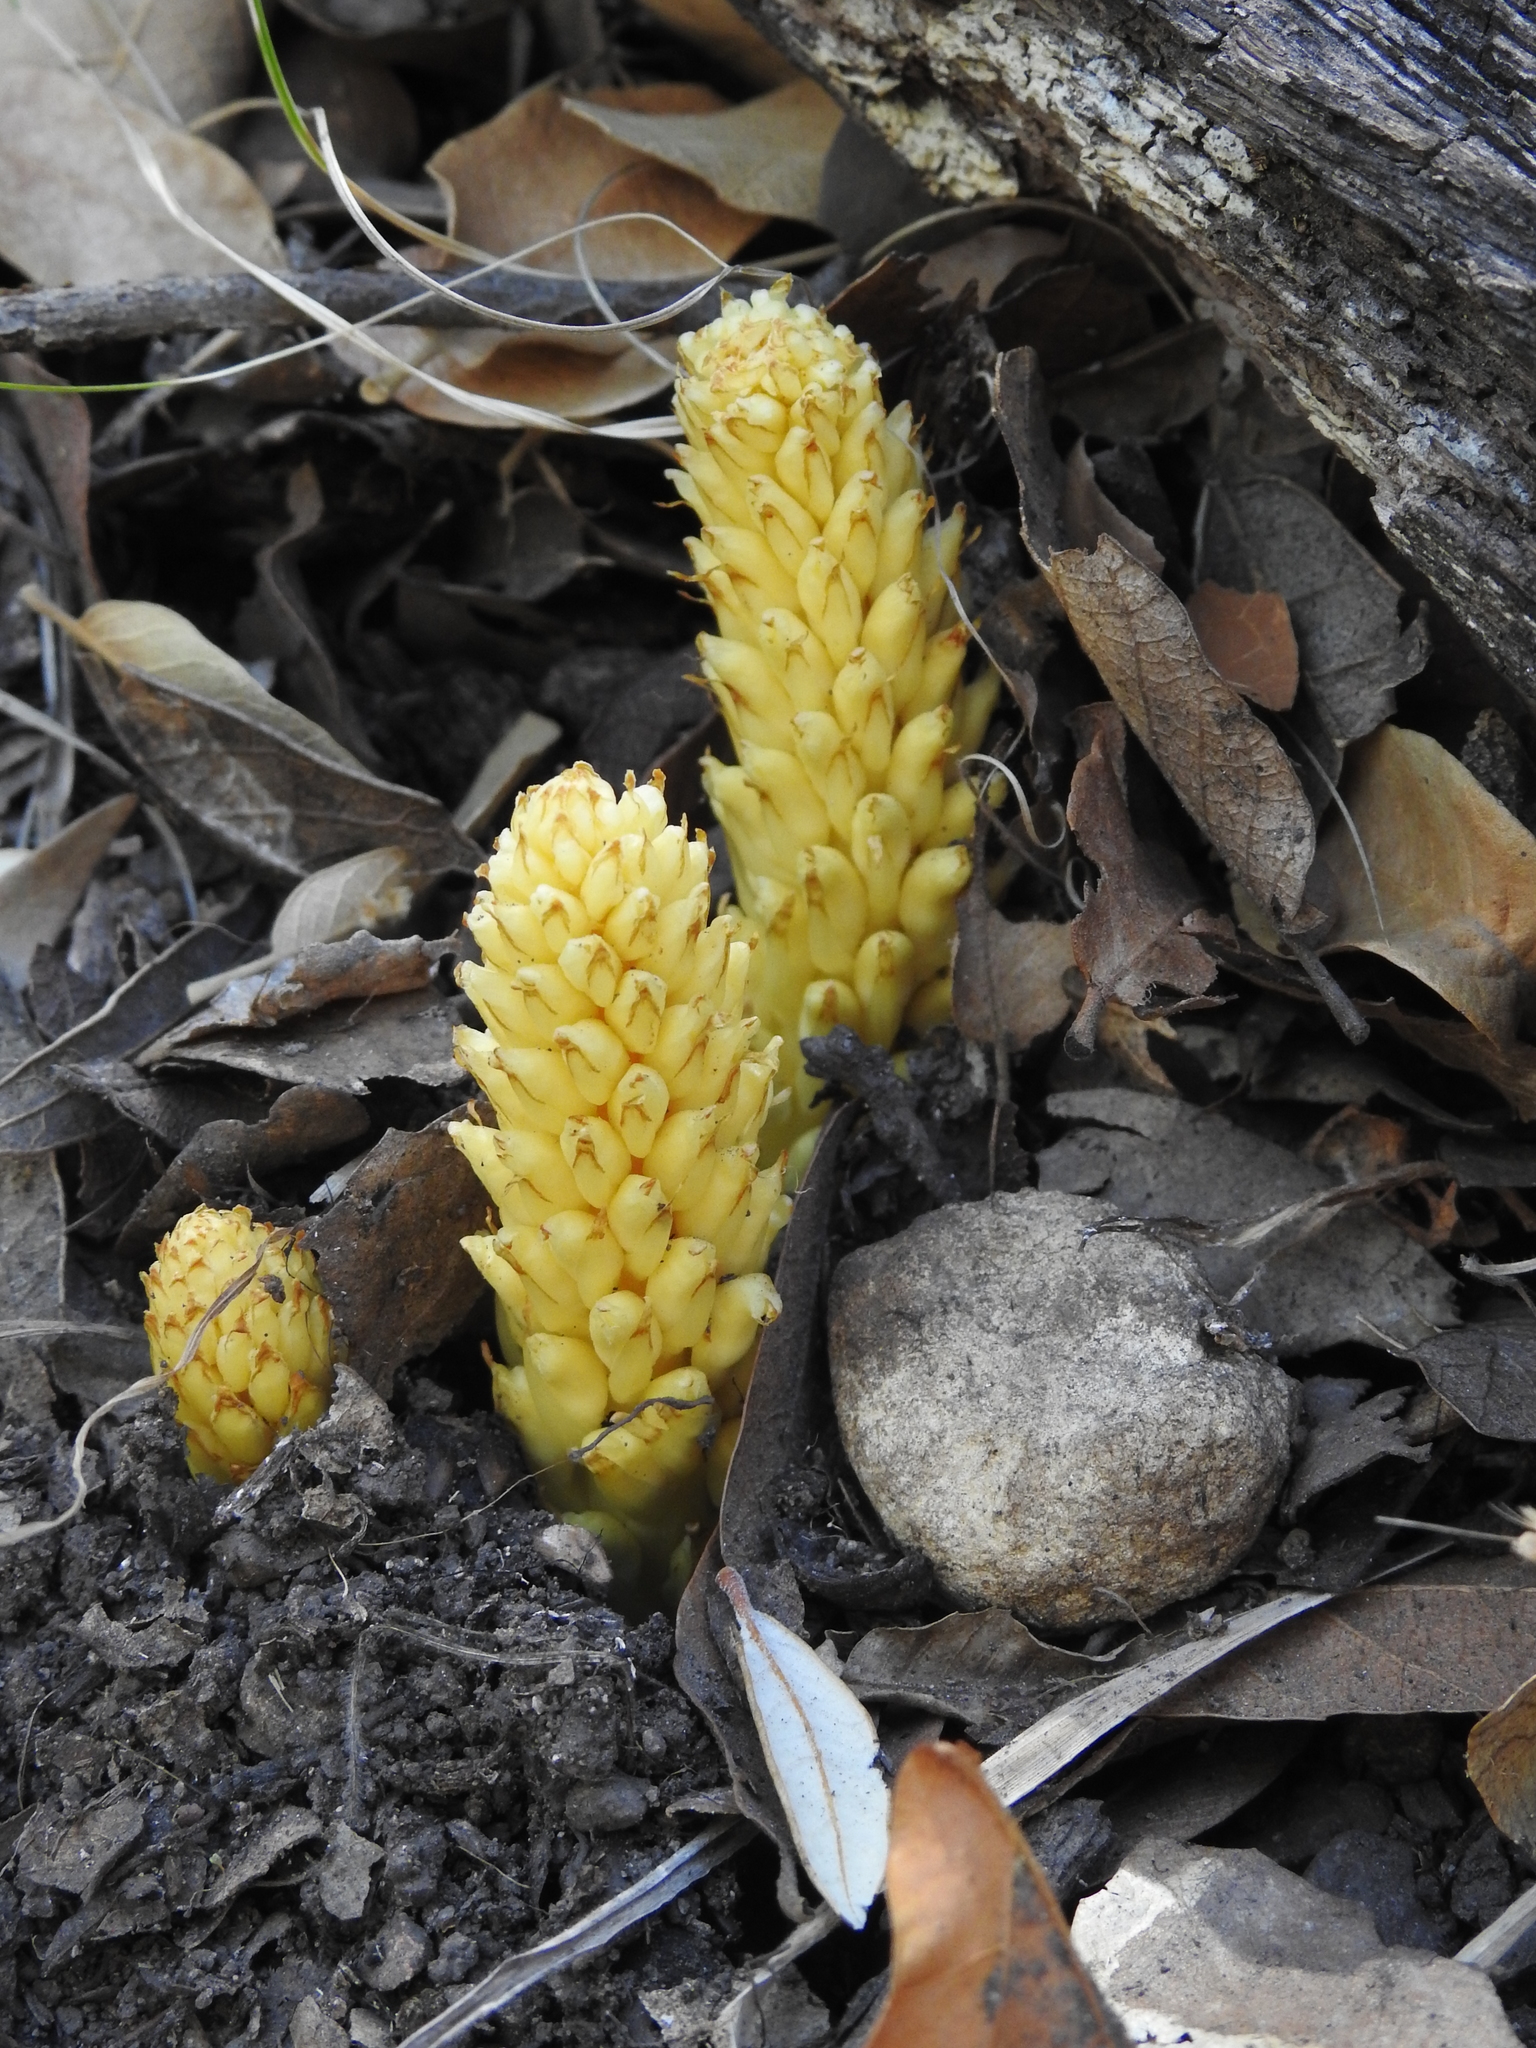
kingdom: Plantae
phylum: Tracheophyta
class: Magnoliopsida
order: Lamiales
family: Orobanchaceae
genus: Conopholis
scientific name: Conopholis alpina
